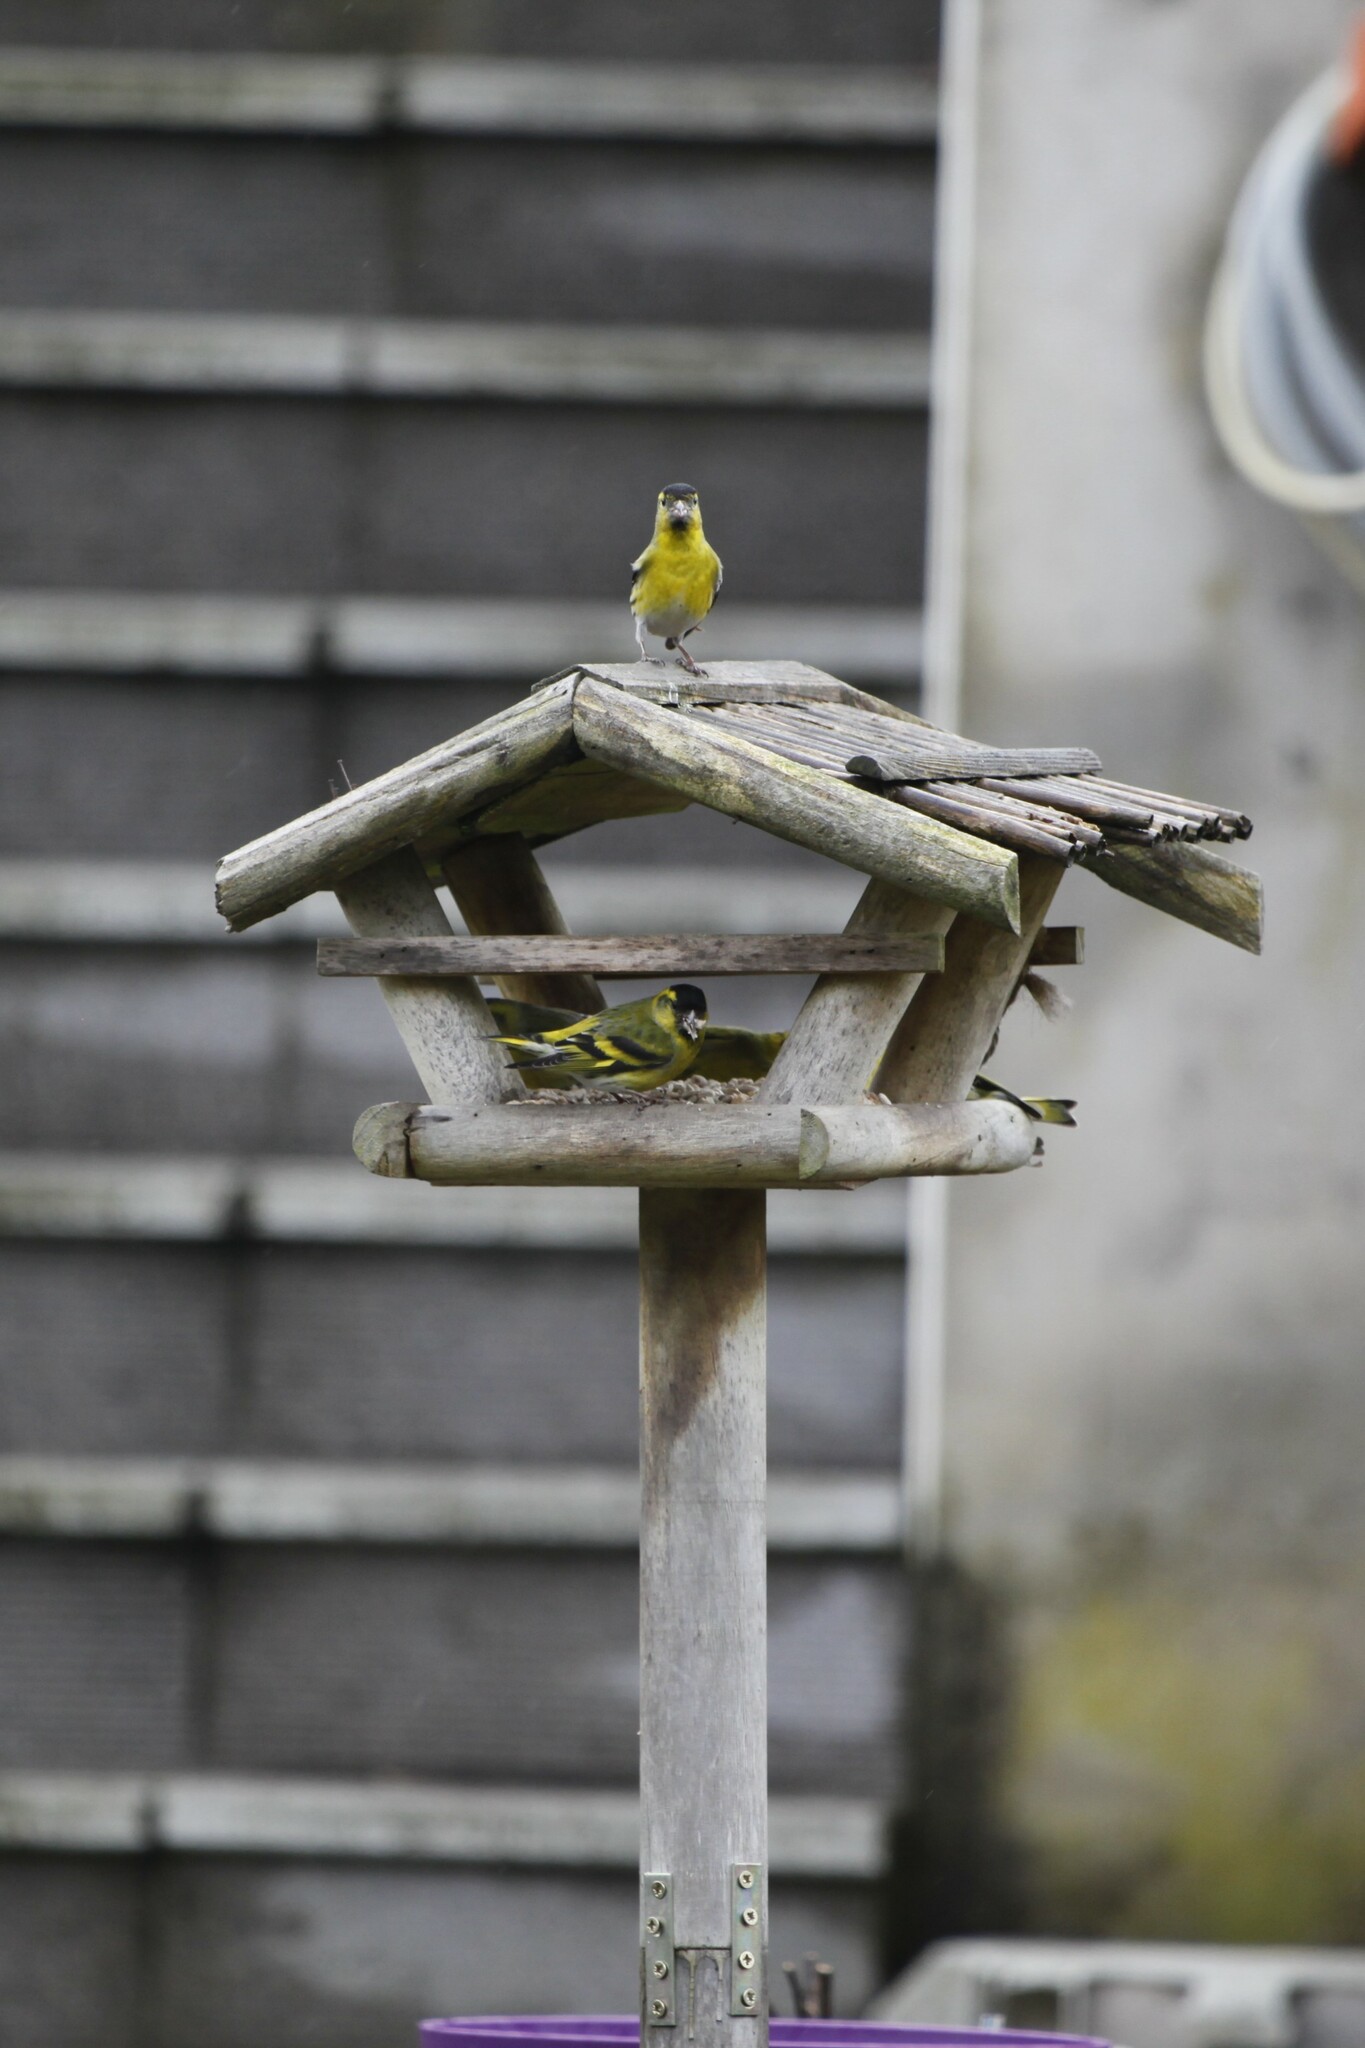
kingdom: Animalia
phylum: Chordata
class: Aves
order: Passeriformes
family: Fringillidae
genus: Spinus
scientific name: Spinus spinus
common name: Eurasian siskin
